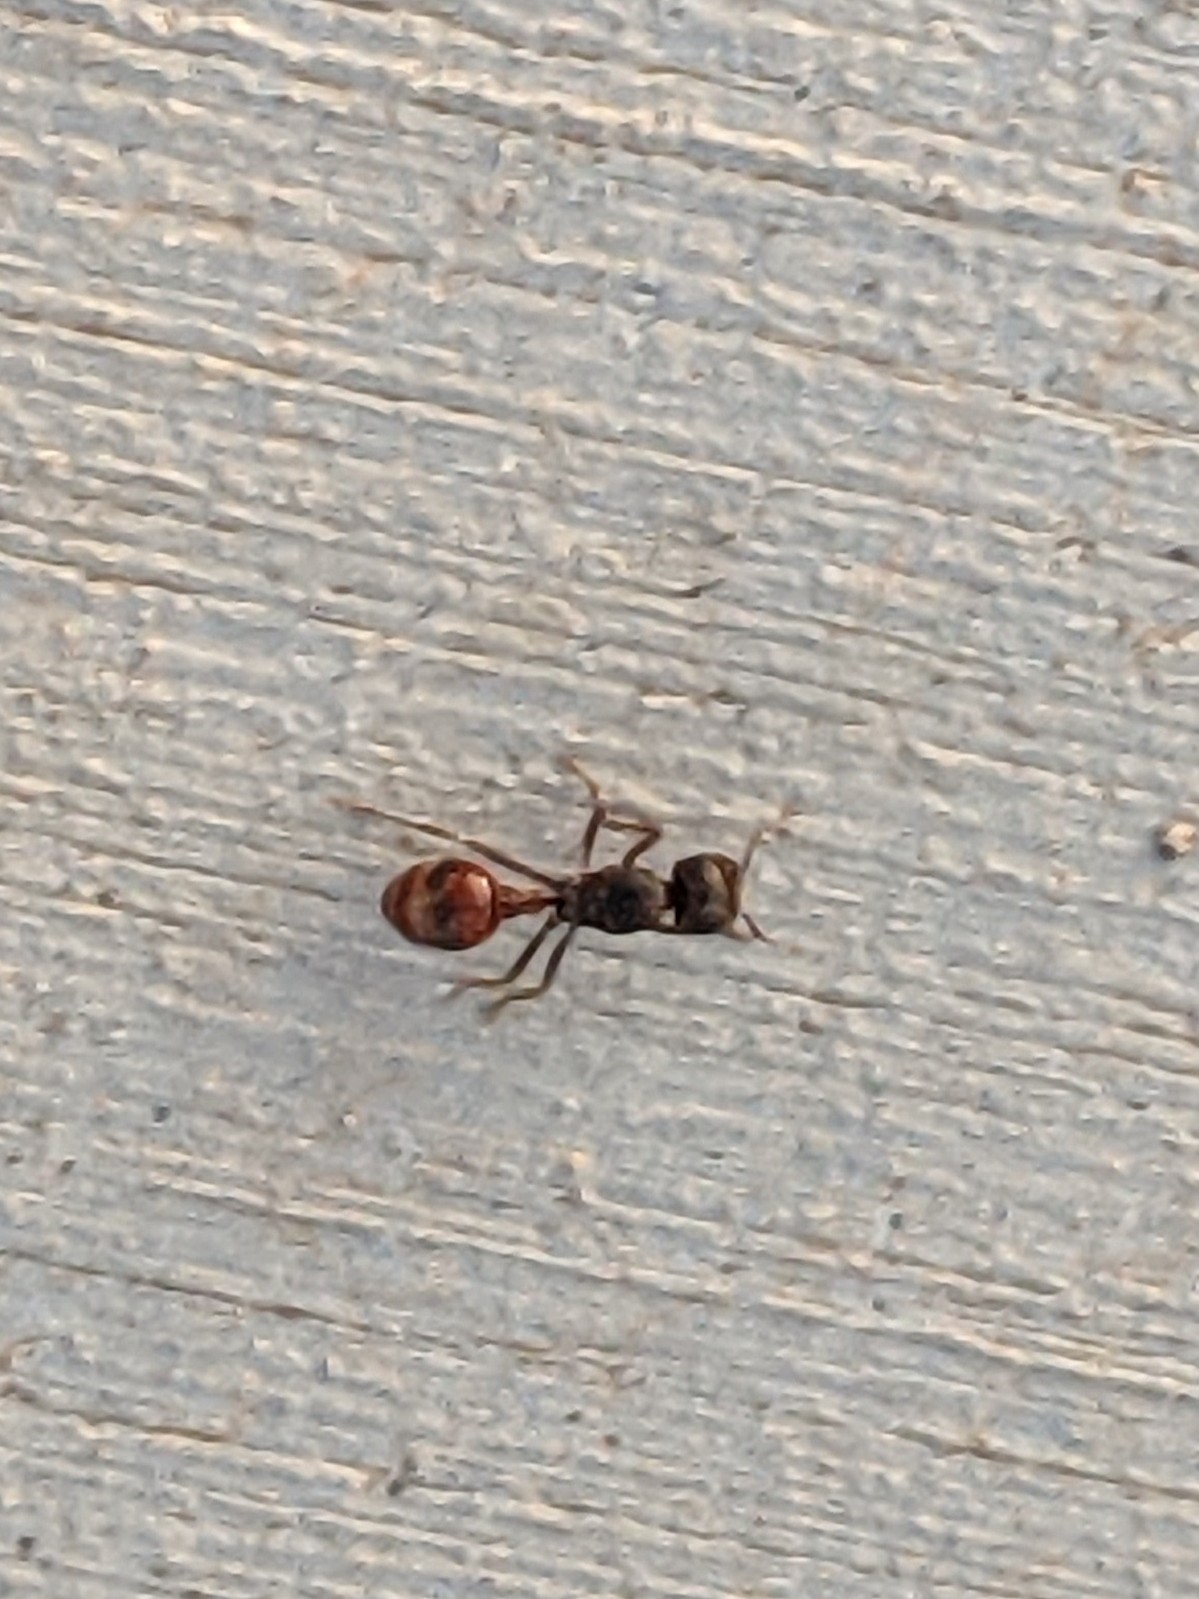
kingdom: Animalia
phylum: Arthropoda
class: Insecta
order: Hymenoptera
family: Formicidae
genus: Pogonomyrmex
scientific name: Pogonomyrmex rugosus
